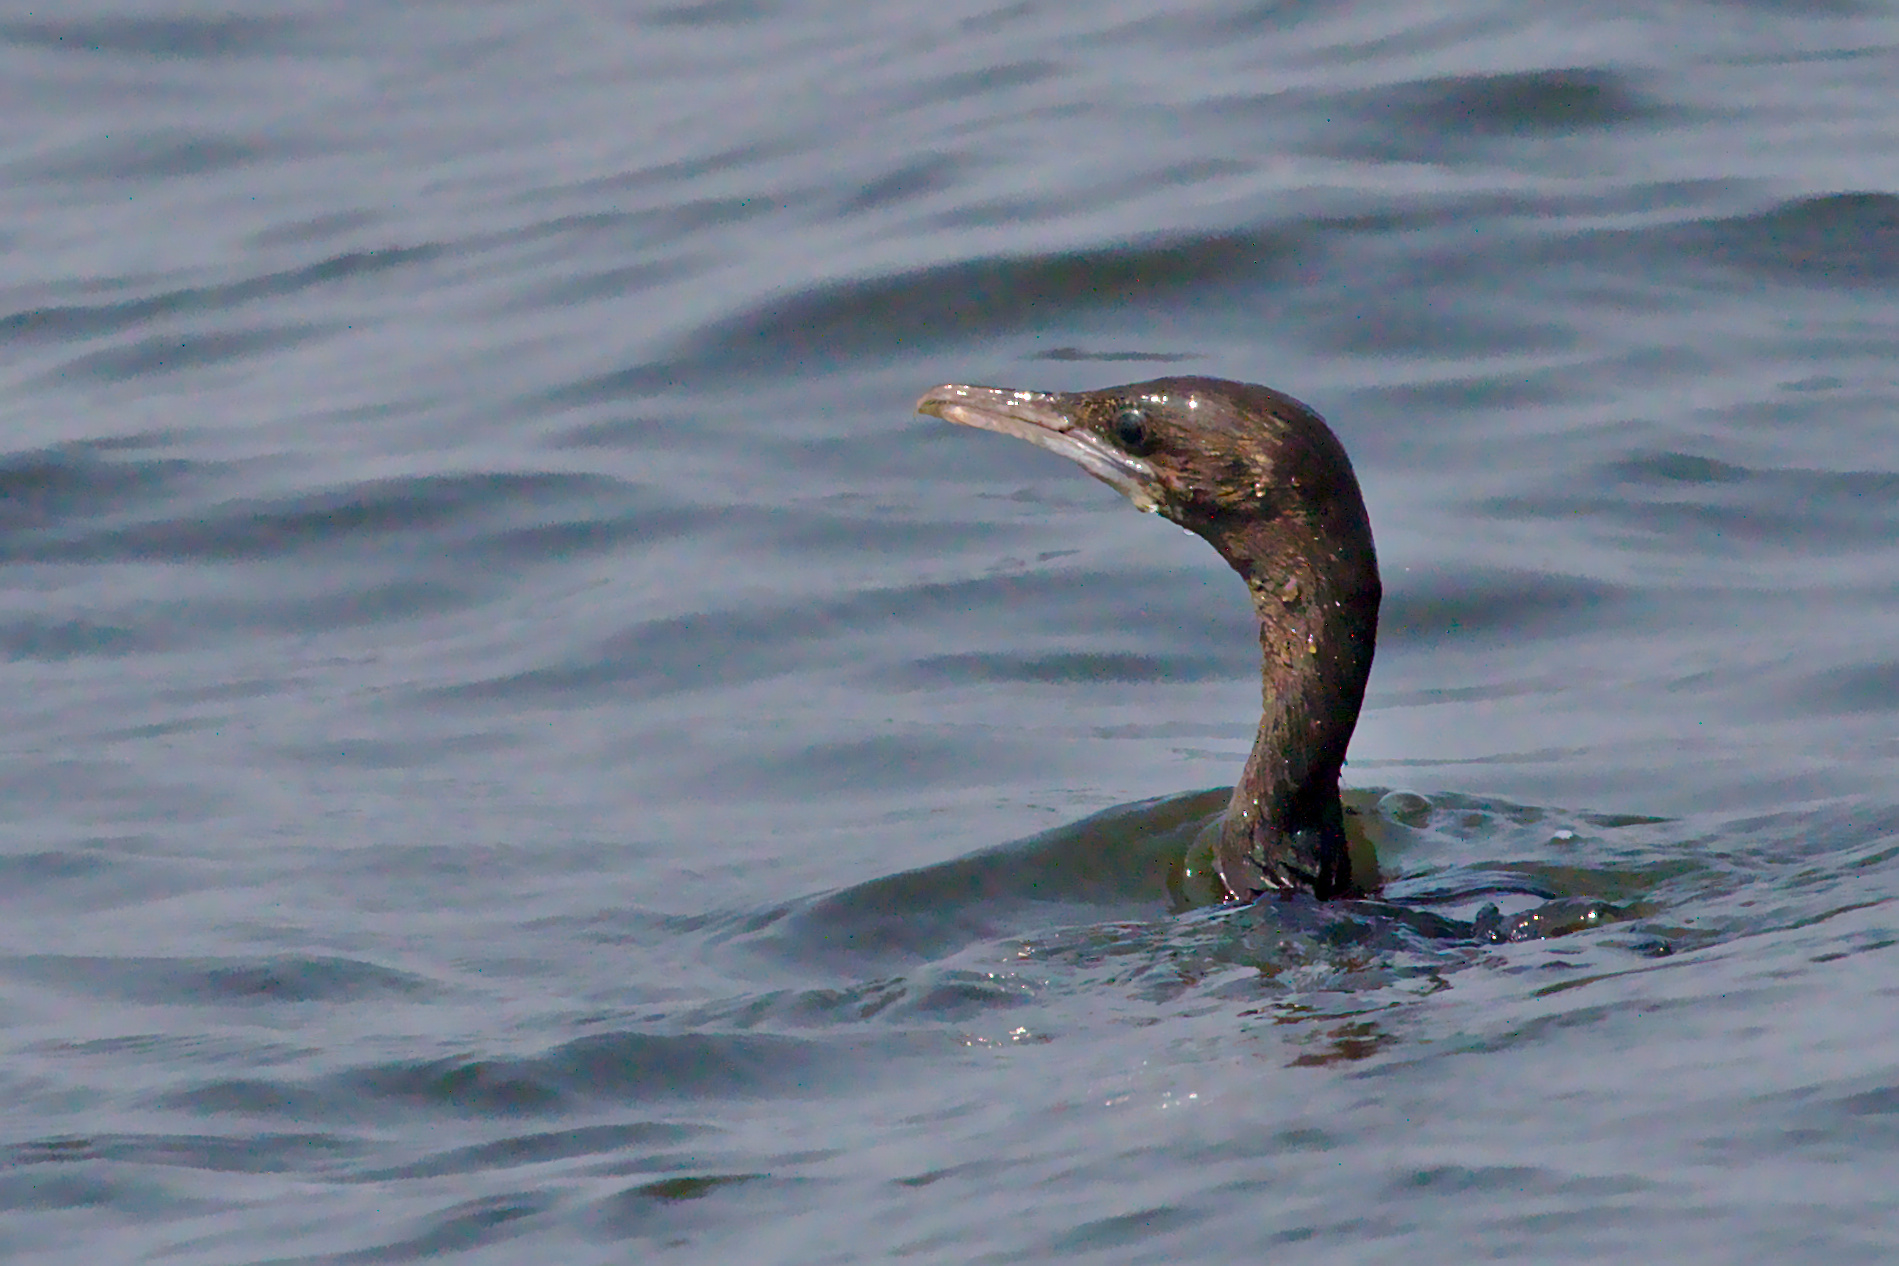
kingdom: Animalia
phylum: Chordata
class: Aves
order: Suliformes
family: Phalacrocoracidae
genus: Microcarbo
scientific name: Microcarbo niger
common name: Little cormorant
